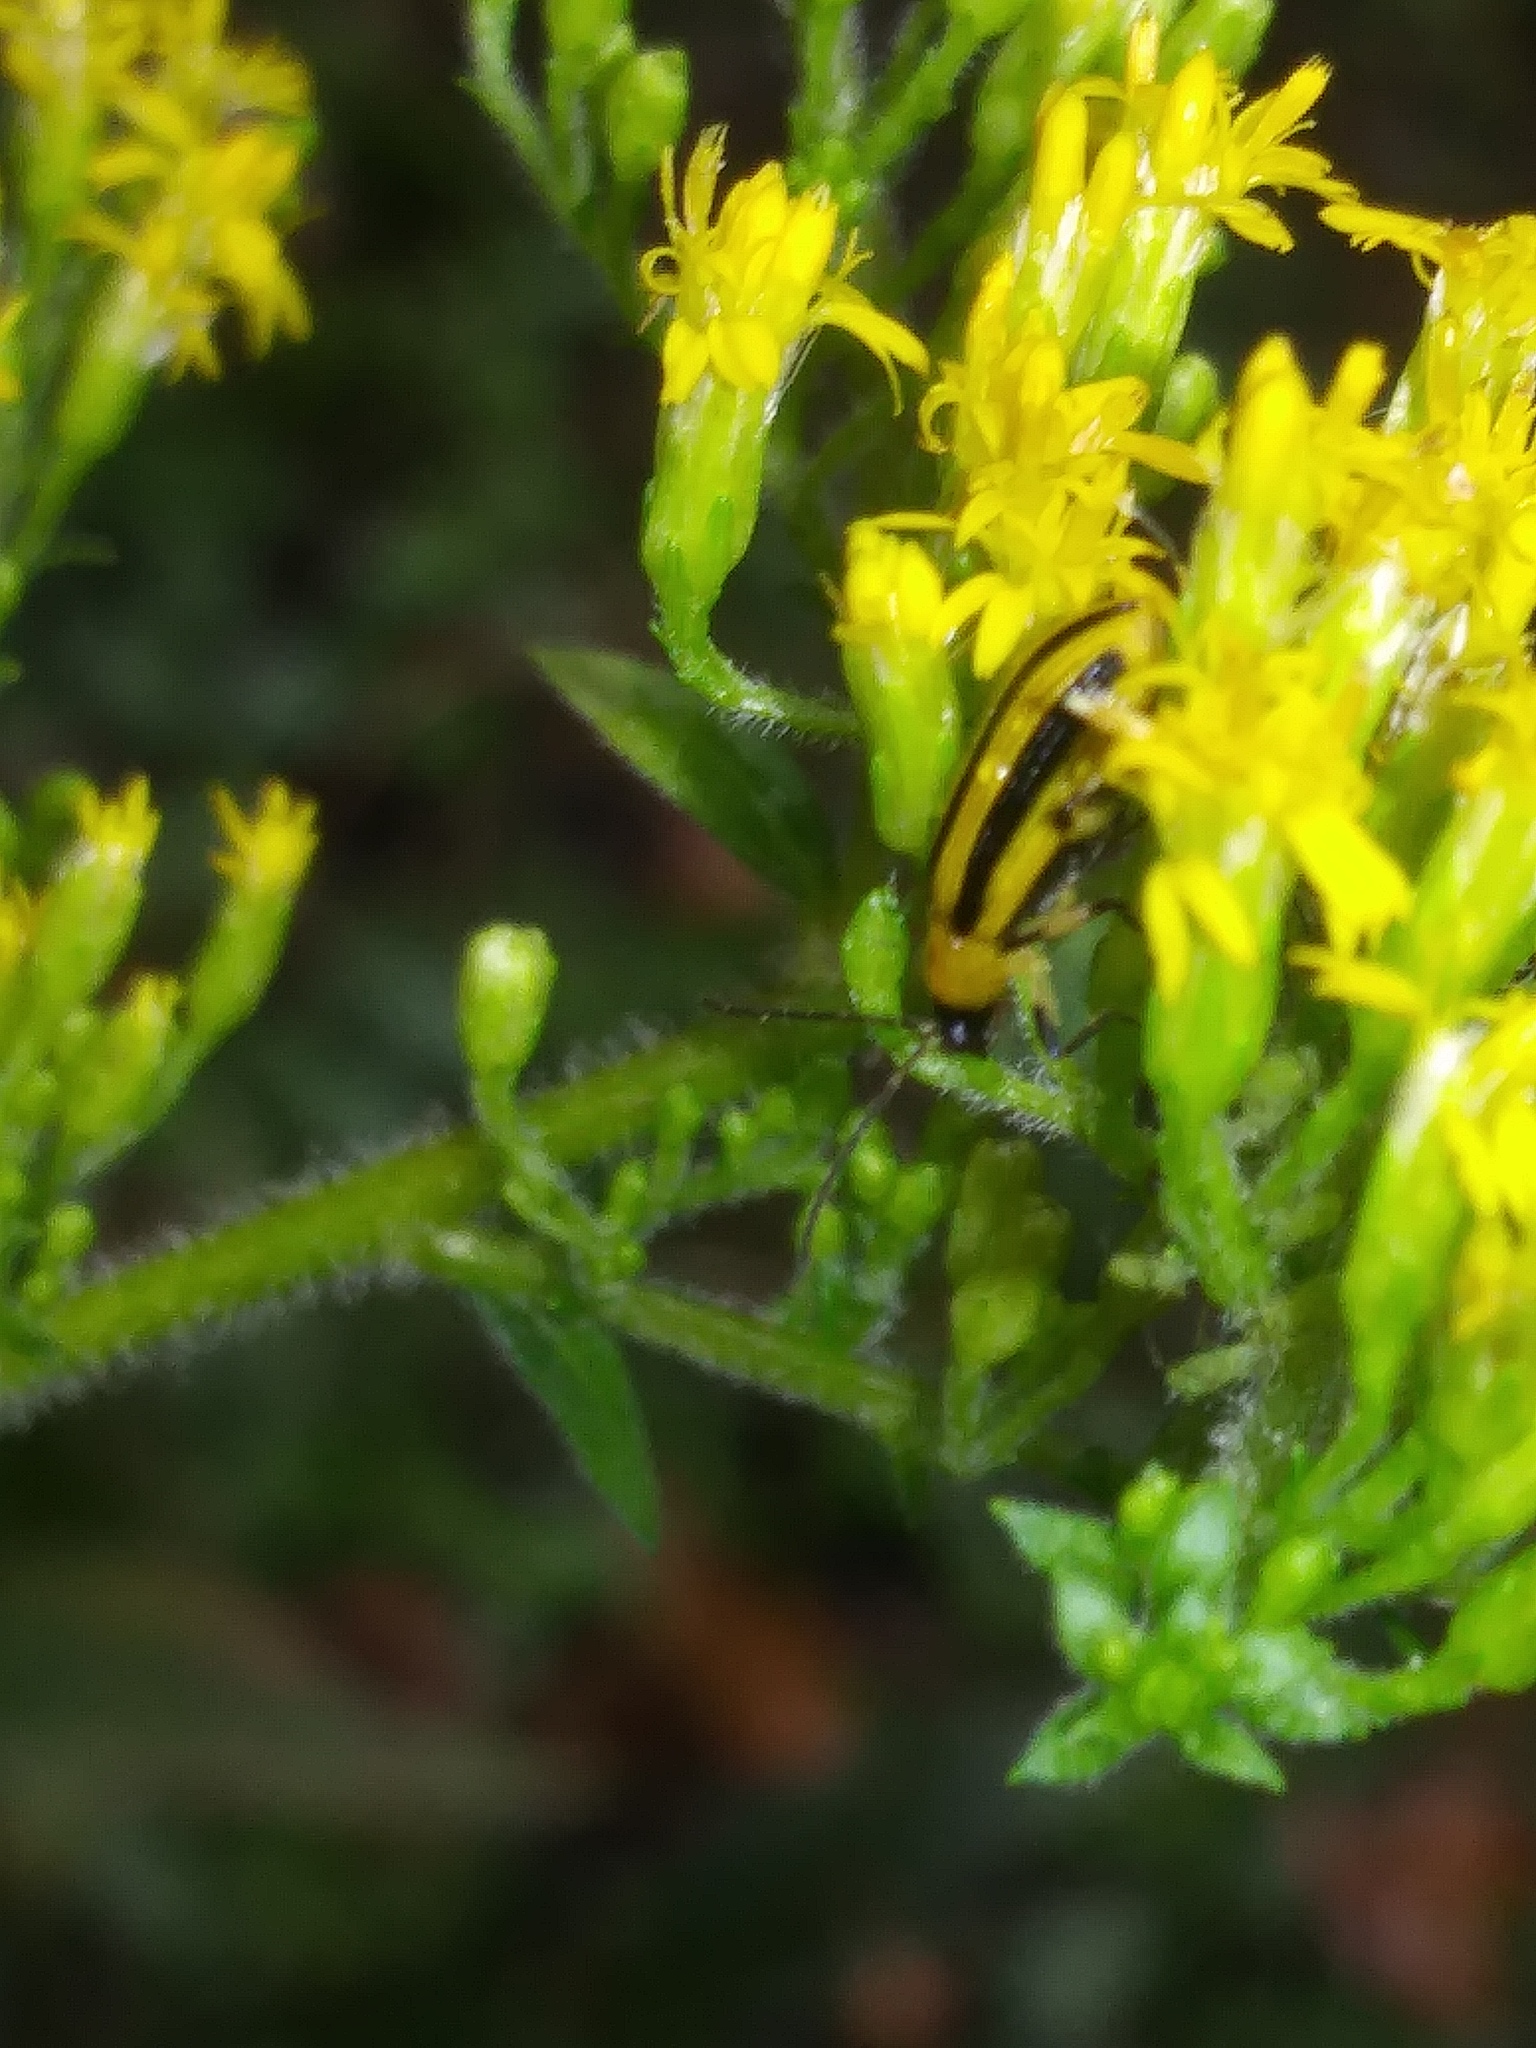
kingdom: Animalia
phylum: Arthropoda
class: Insecta
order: Coleoptera
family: Chrysomelidae
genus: Acalymma
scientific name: Acalymma vittatum
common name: Striped cucumber beetle
